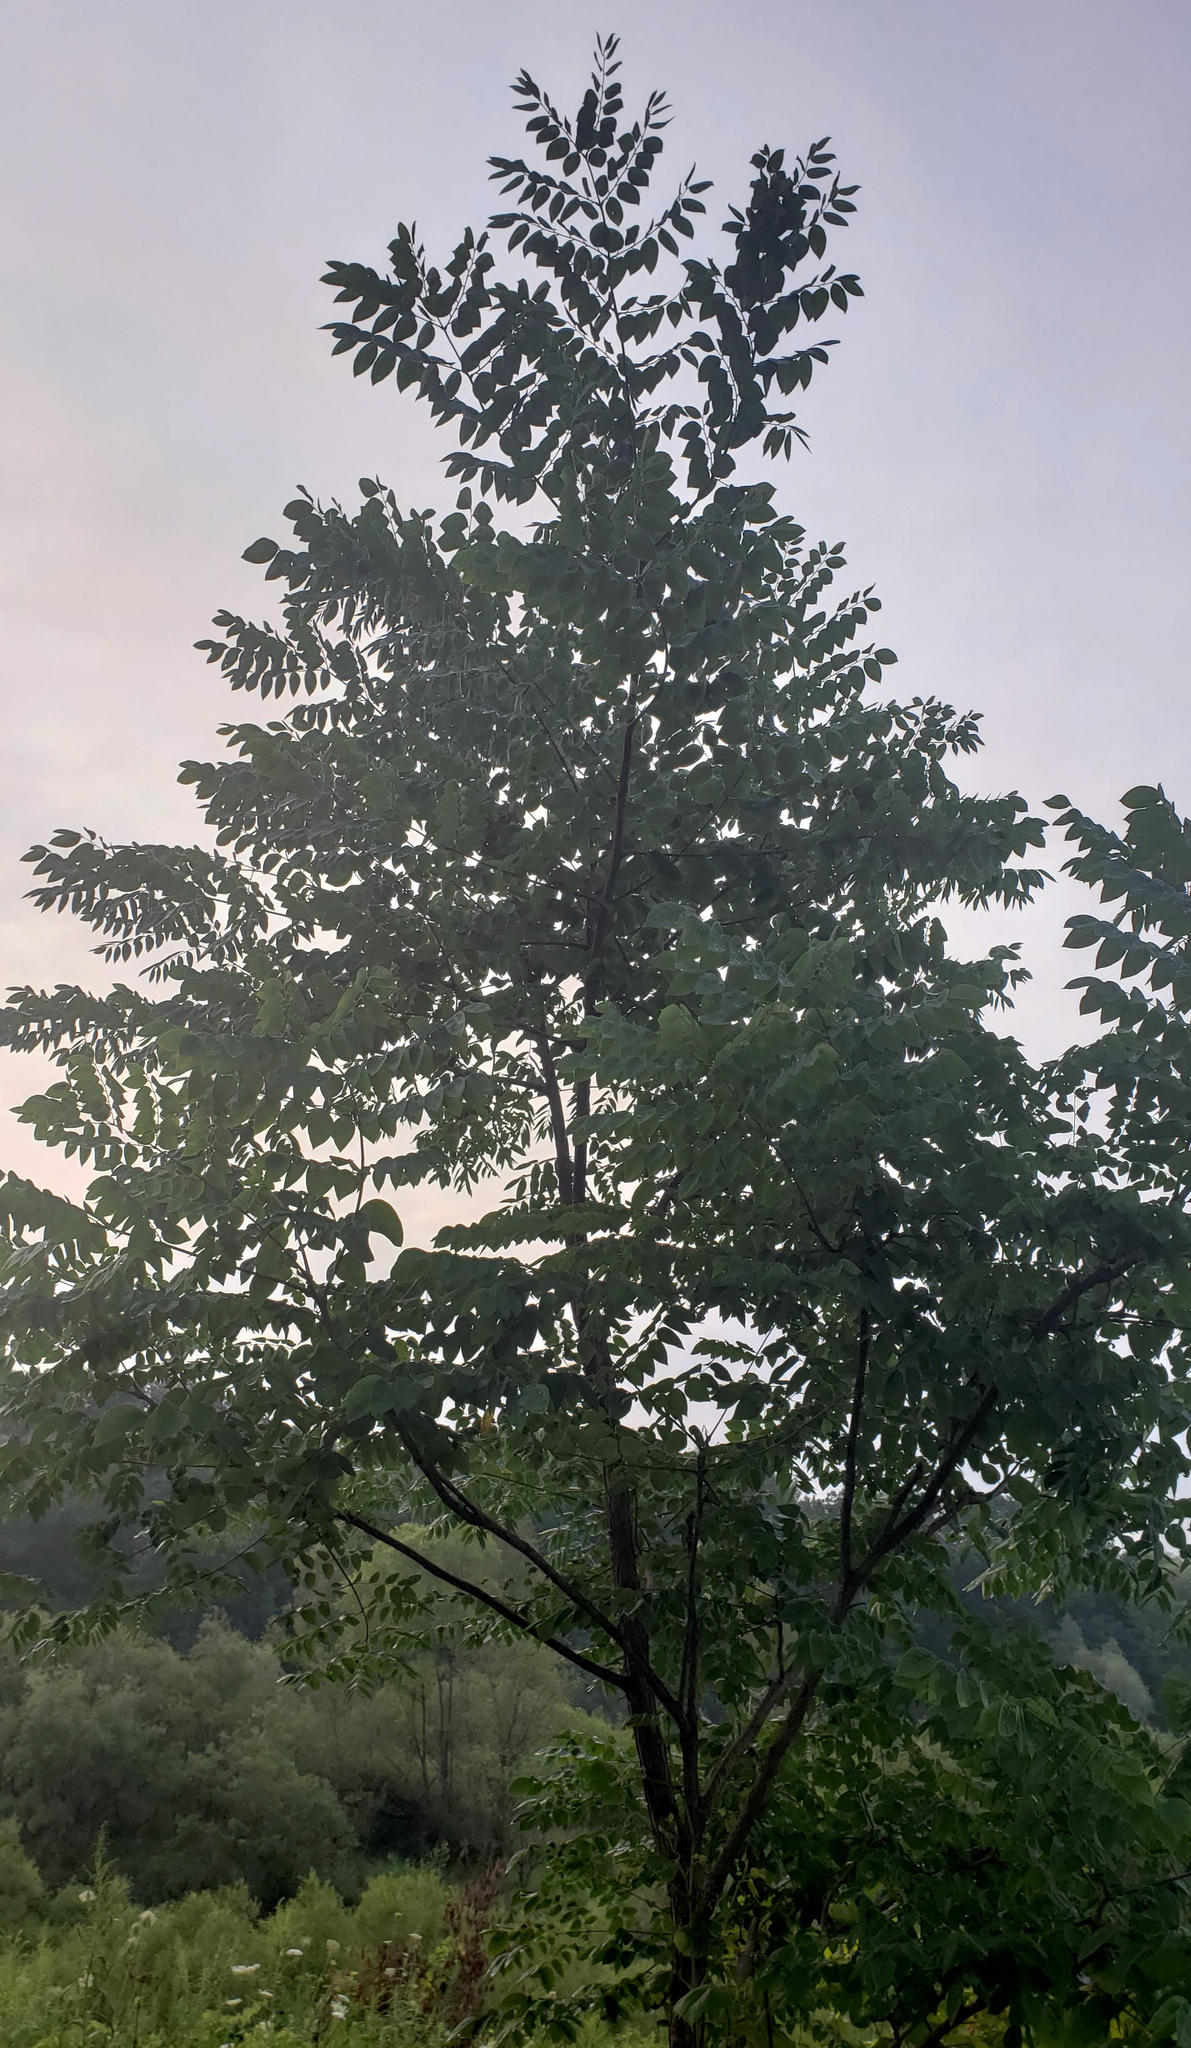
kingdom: Plantae
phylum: Tracheophyta
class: Magnoliopsida
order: Fabales
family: Fabaceae
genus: Gymnocladus
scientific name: Gymnocladus dioicus
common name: Kentucky coffee-tree
